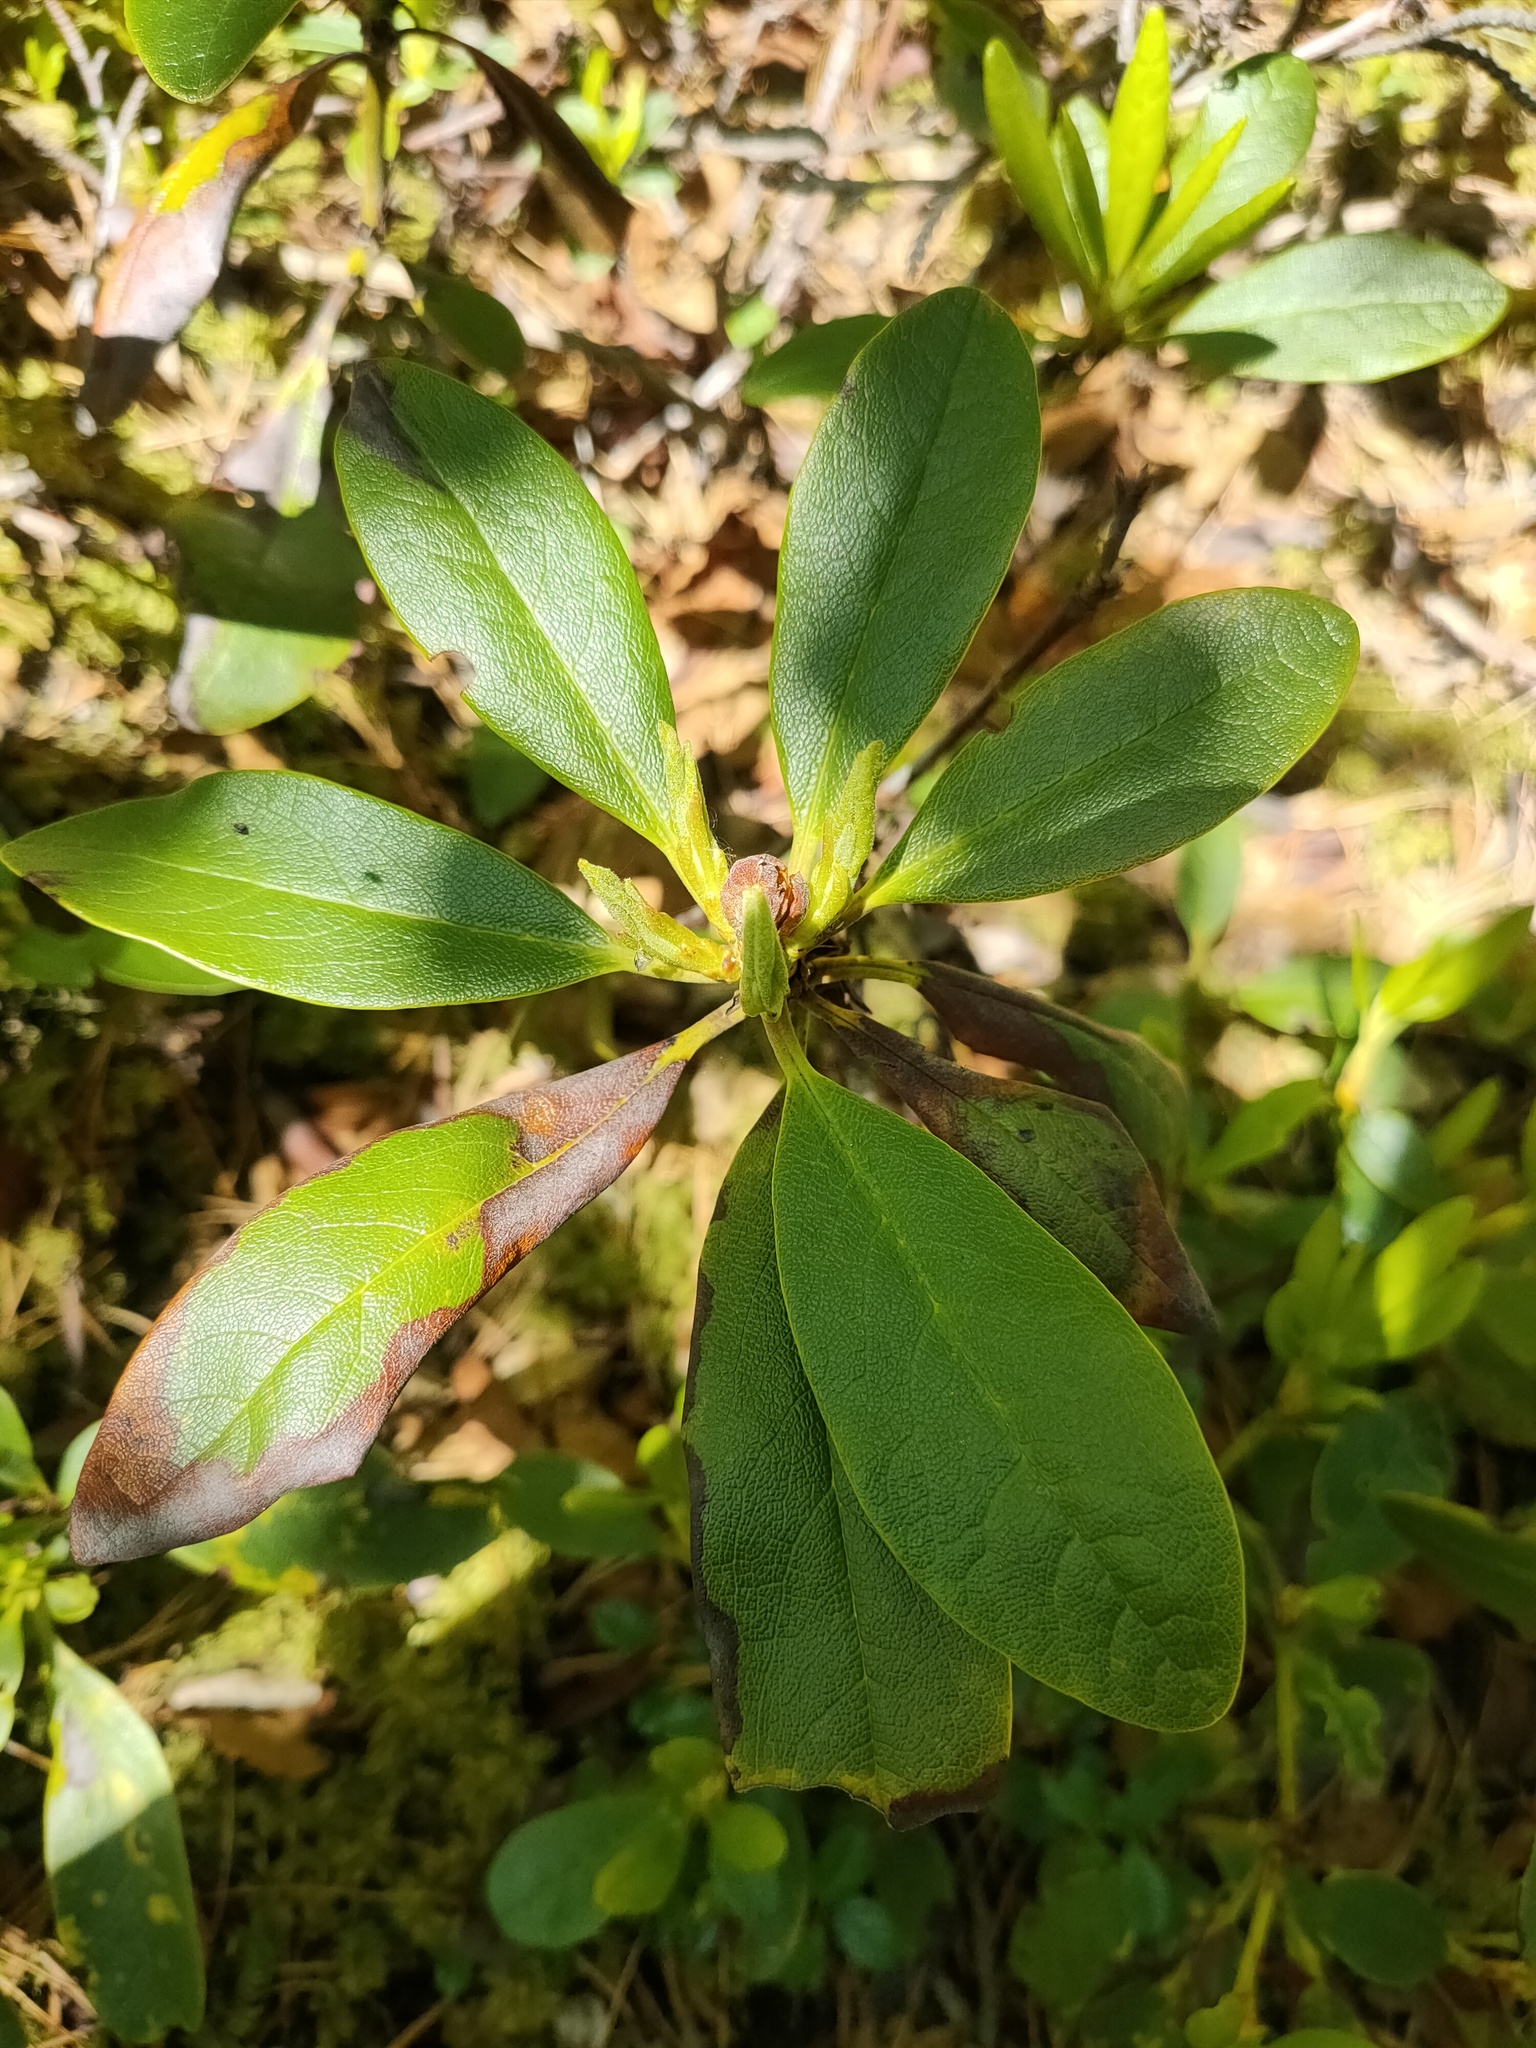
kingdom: Plantae
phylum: Tracheophyta
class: Magnoliopsida
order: Ericales
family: Ericaceae
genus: Rhododendron
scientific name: Rhododendron aureum
